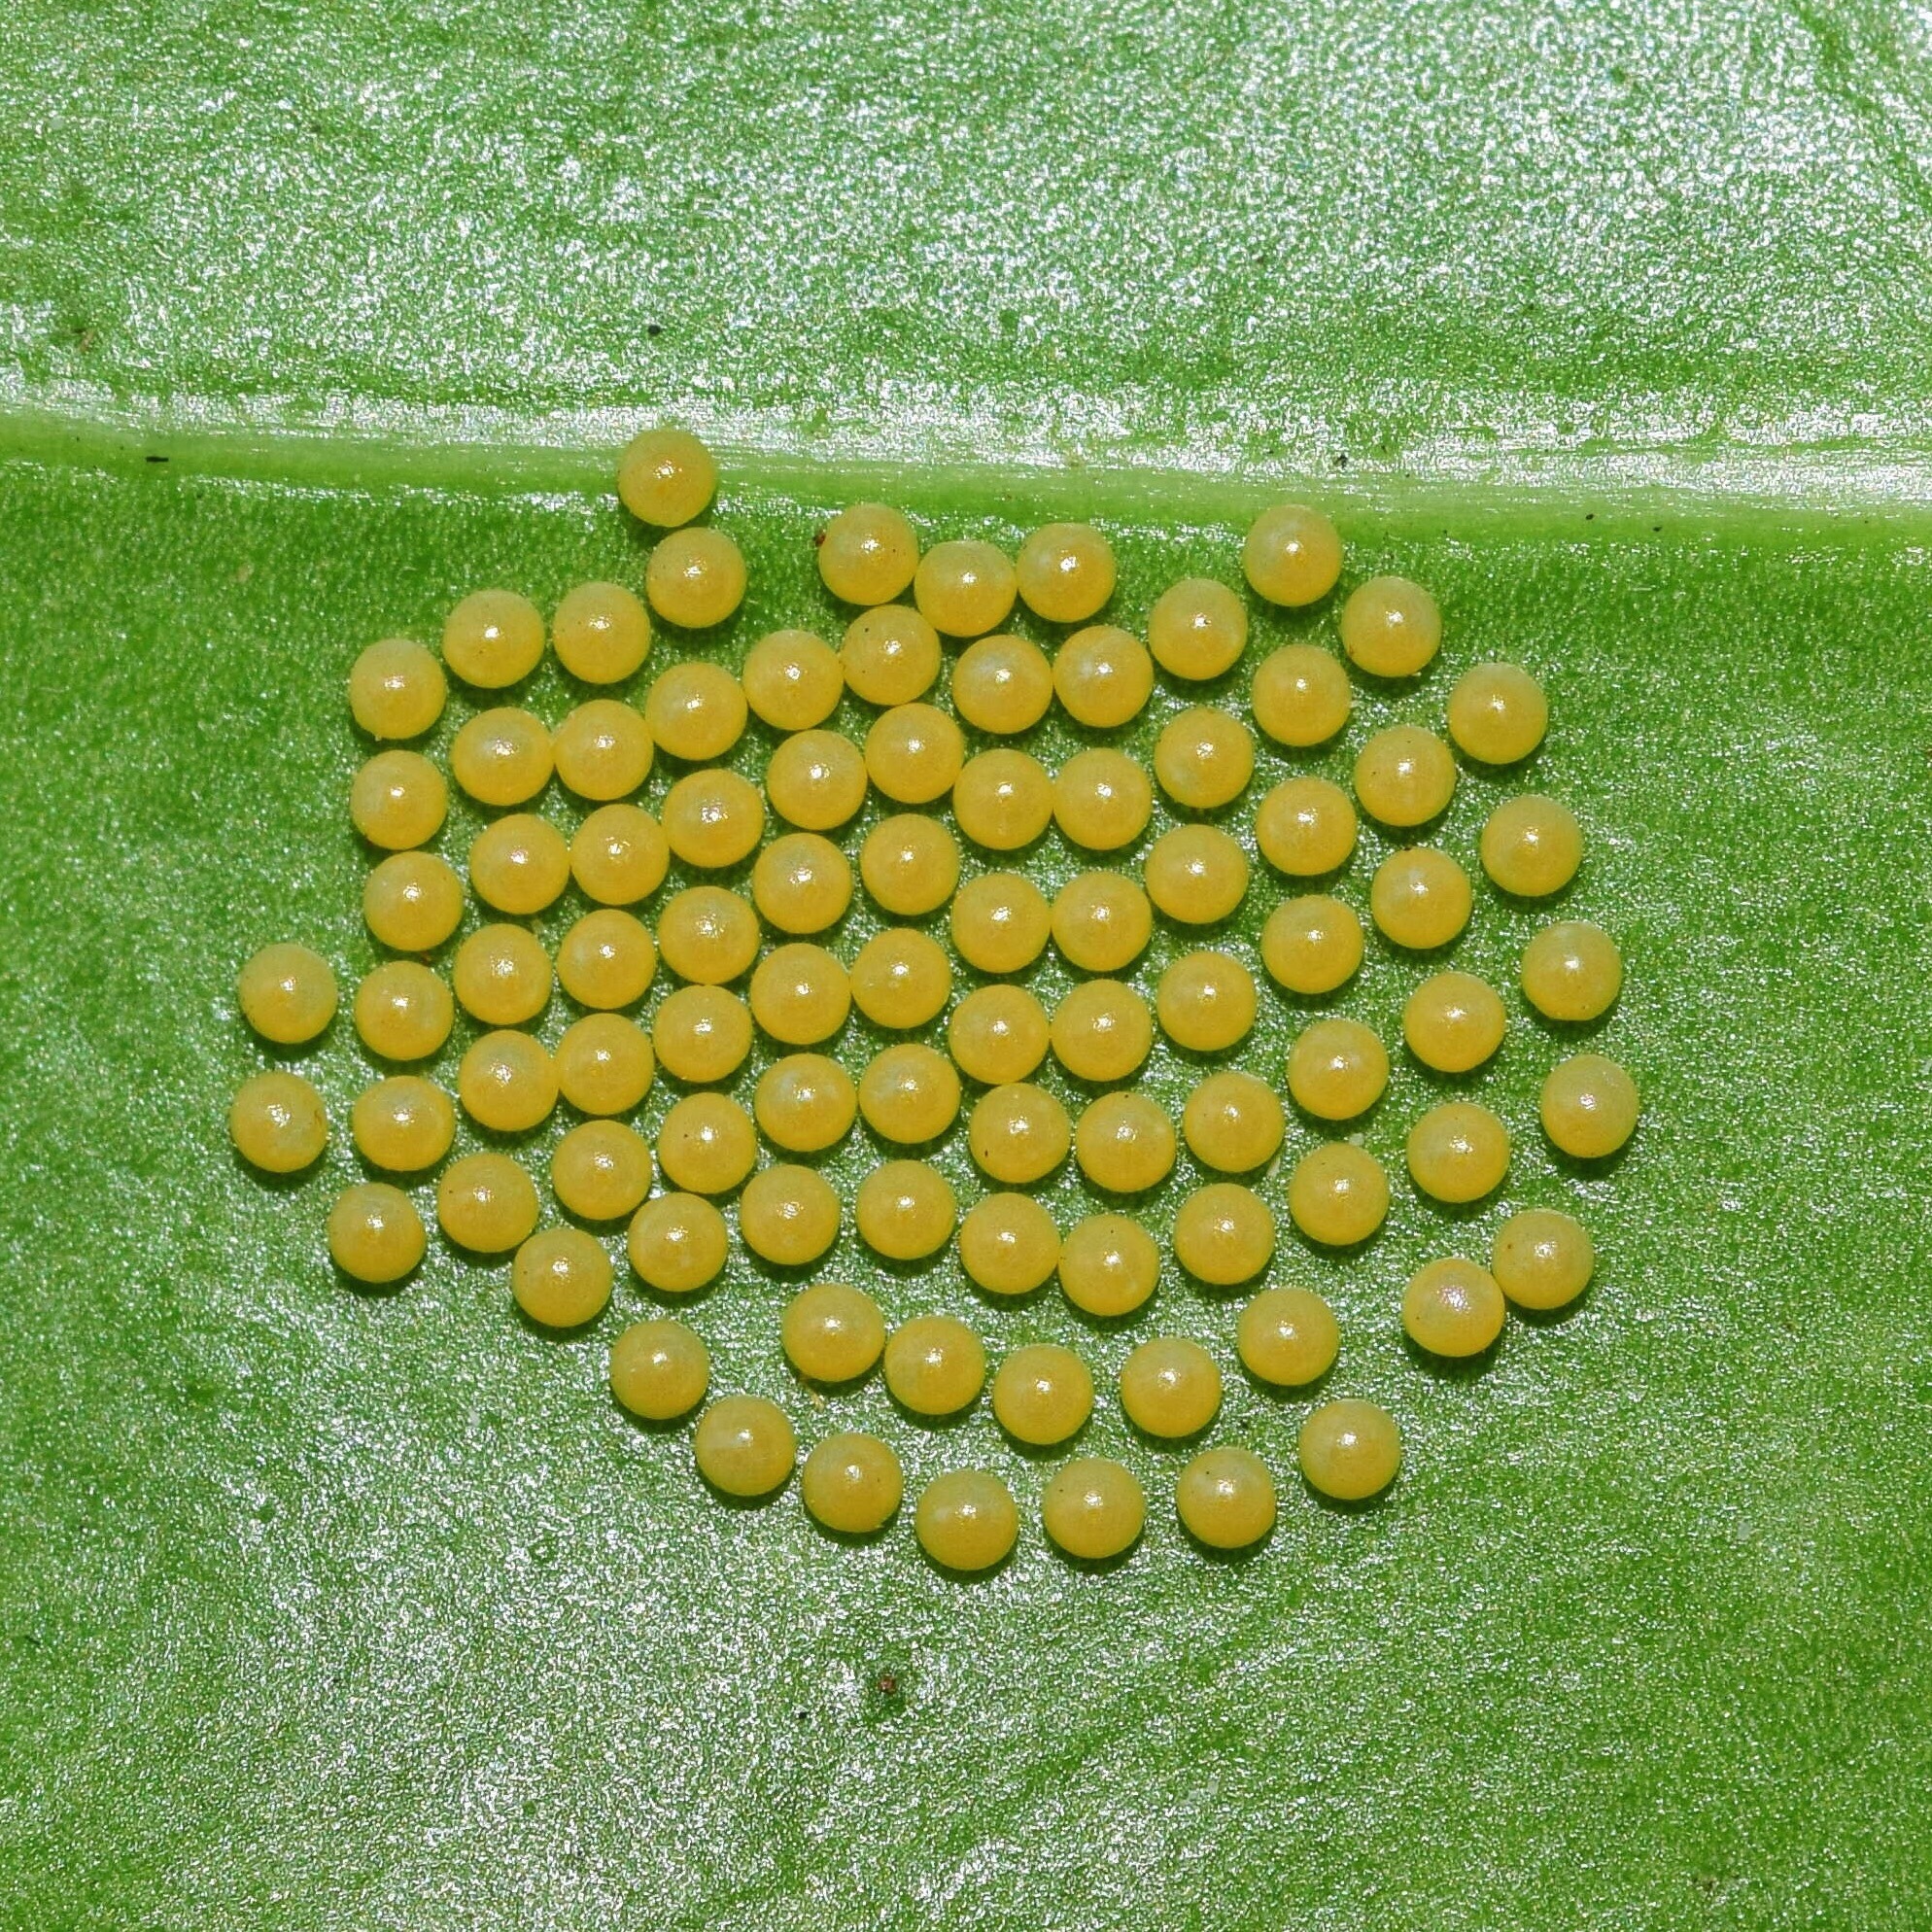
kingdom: Animalia
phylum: Arthropoda
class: Insecta
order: Lepidoptera
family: Erebidae
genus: Ustjuzhania
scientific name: Ustjuzhania lineata
